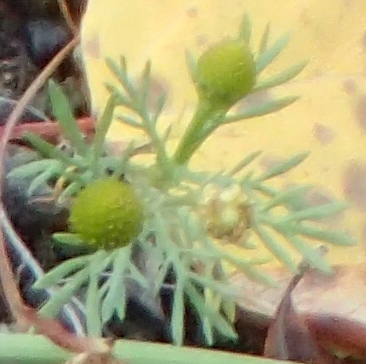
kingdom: Plantae
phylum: Tracheophyta
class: Magnoliopsida
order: Asterales
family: Asteraceae
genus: Matricaria
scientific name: Matricaria discoidea
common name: Disc mayweed
